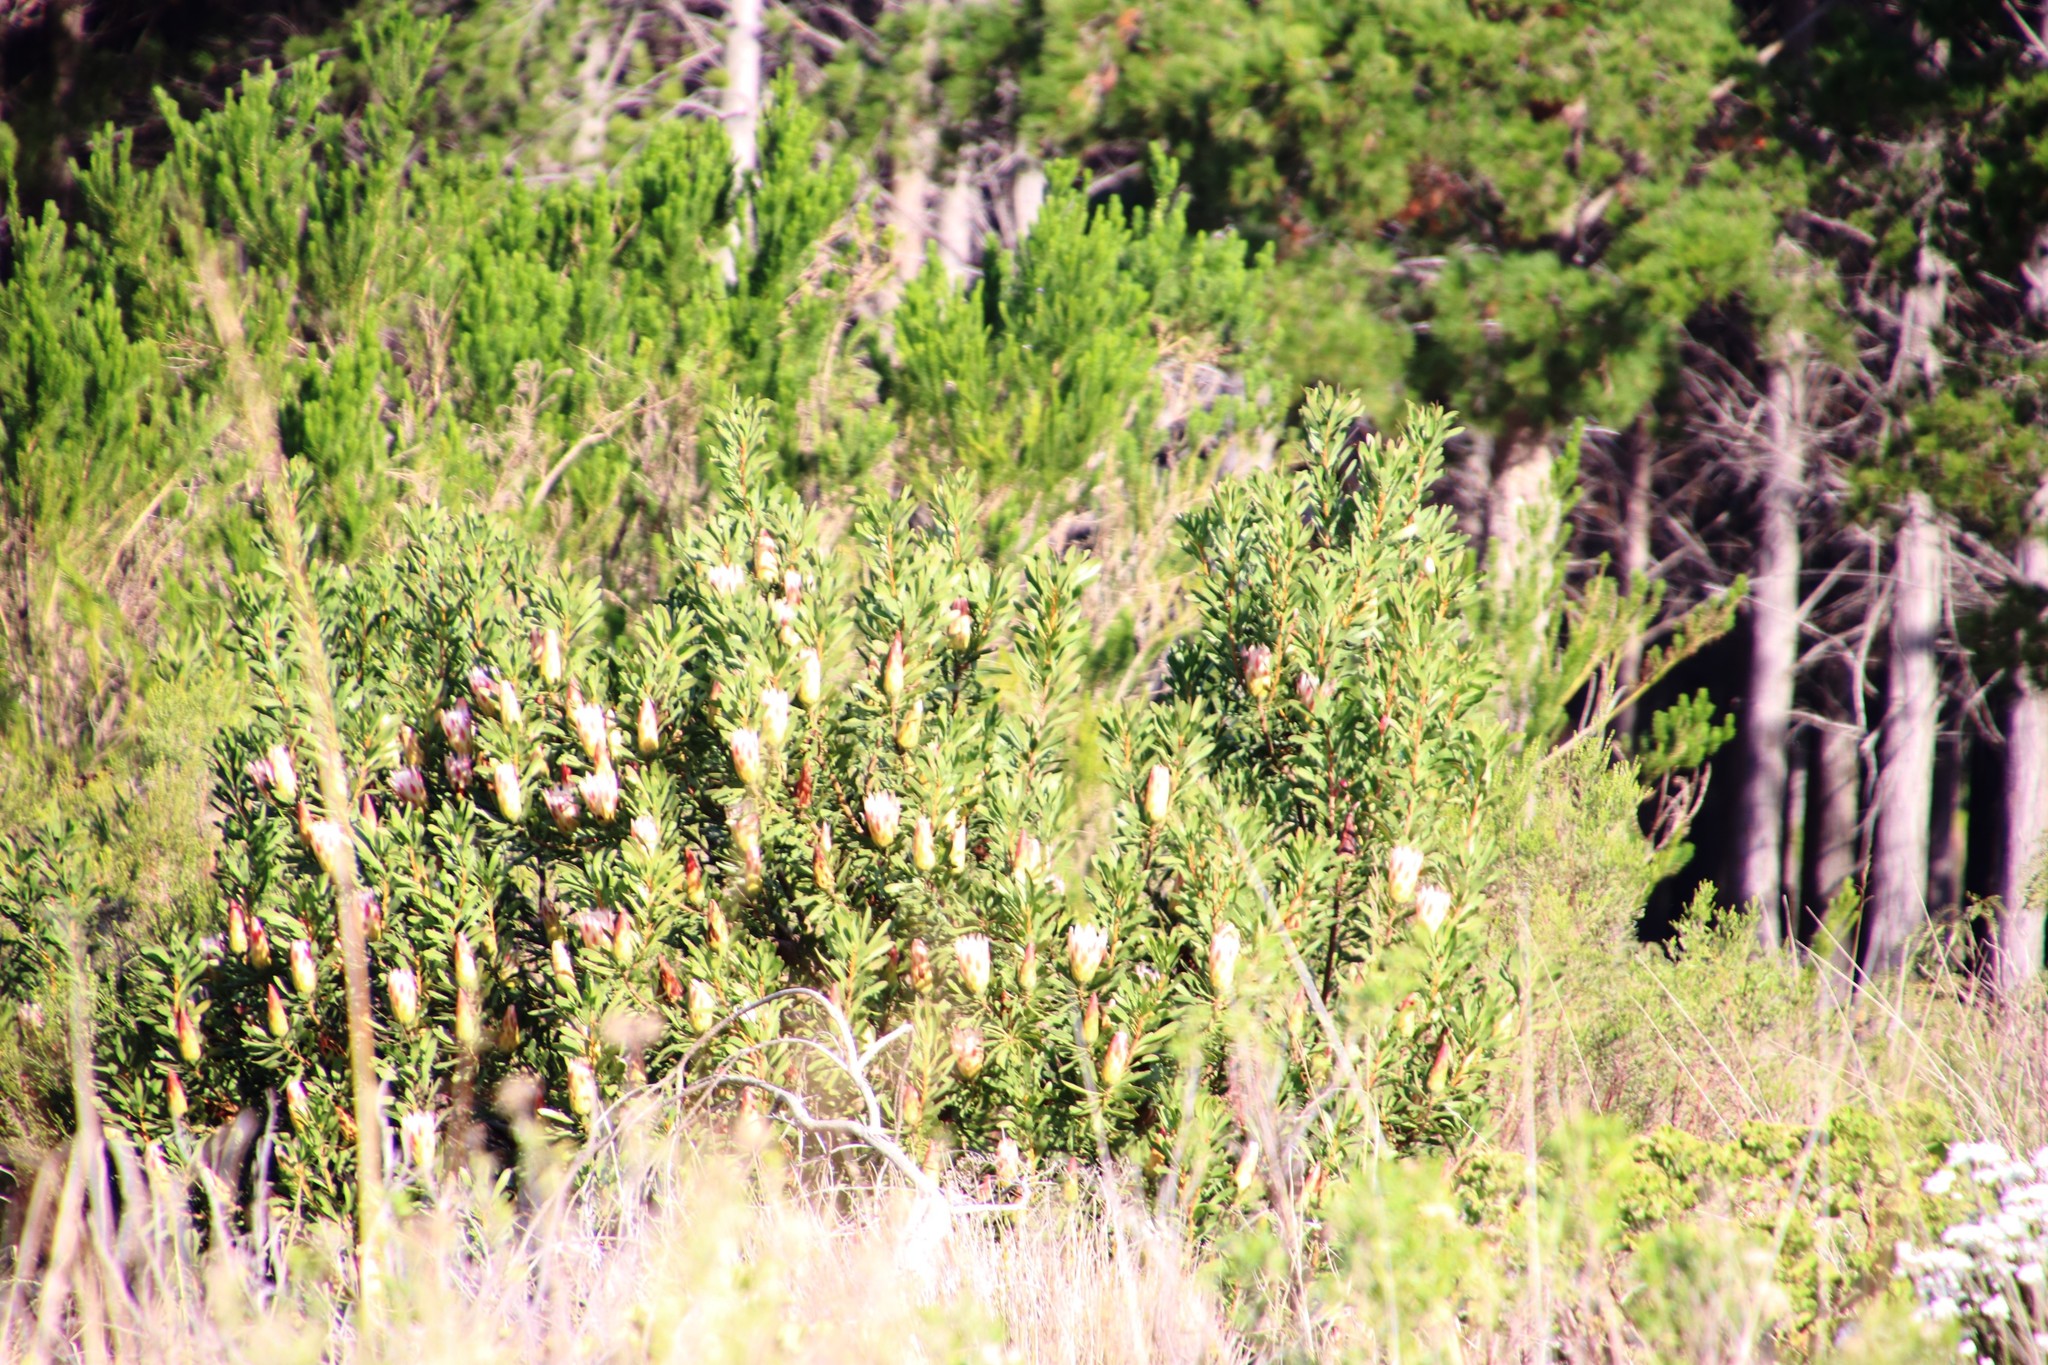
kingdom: Plantae
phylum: Tracheophyta
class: Magnoliopsida
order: Proteales
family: Proteaceae
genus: Protea
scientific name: Protea repens
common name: Sugarbush
